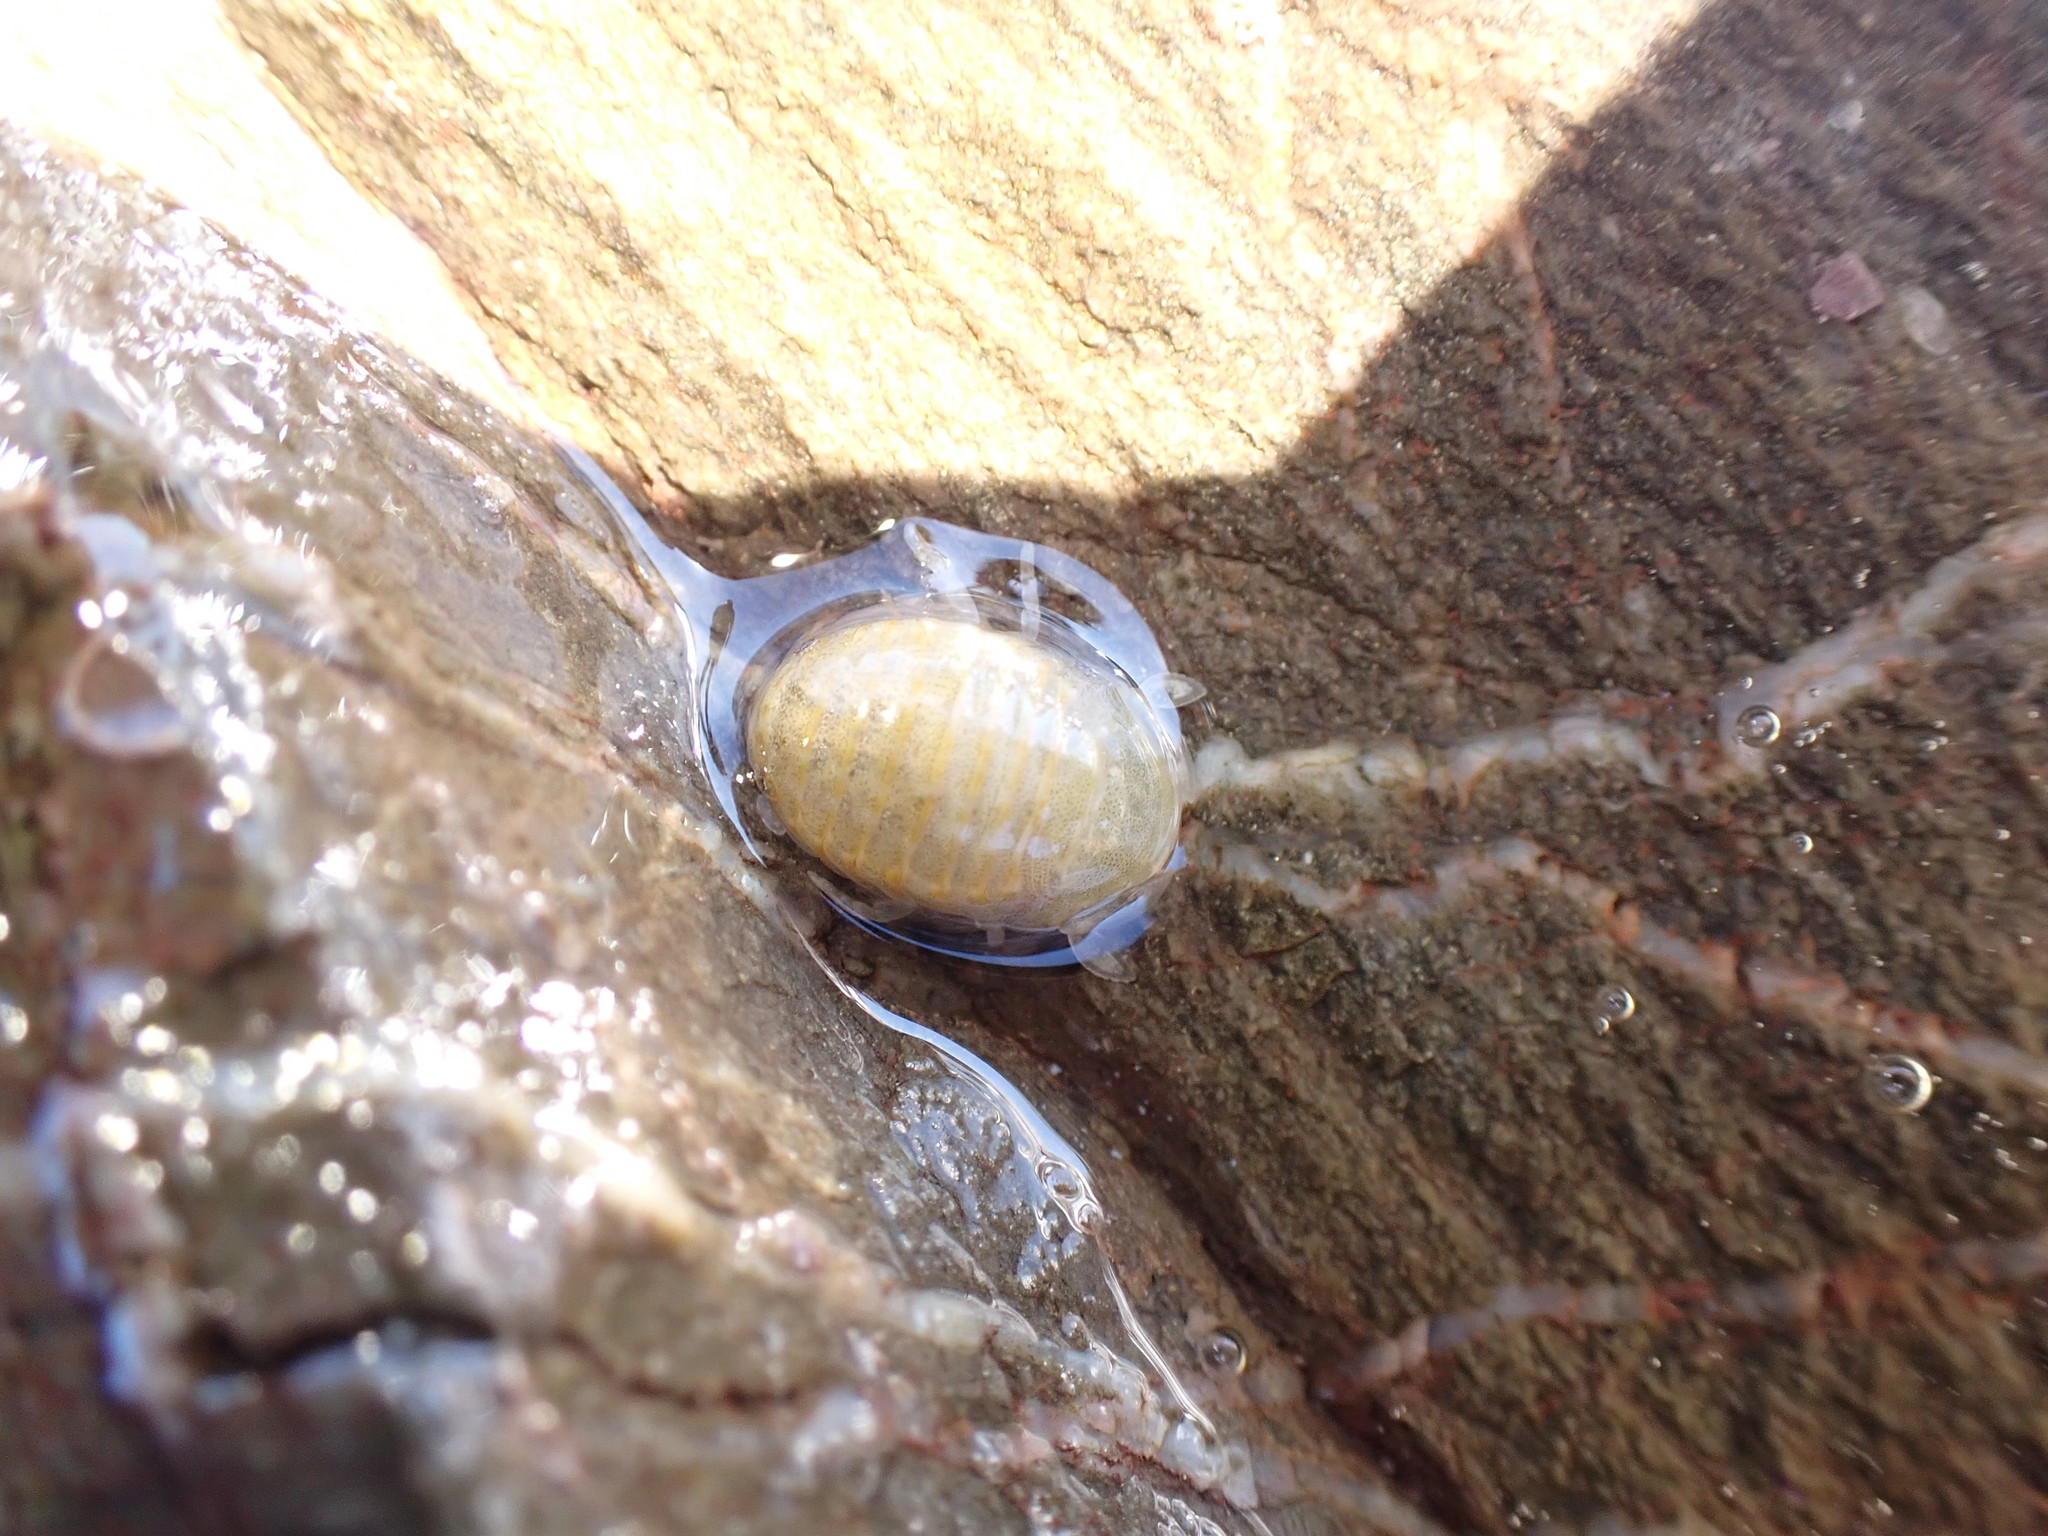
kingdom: Animalia
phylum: Arthropoda
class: Malacostraca
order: Isopoda
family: Sphaeromatidae
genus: Sphaeroma
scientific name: Sphaeroma serratum
